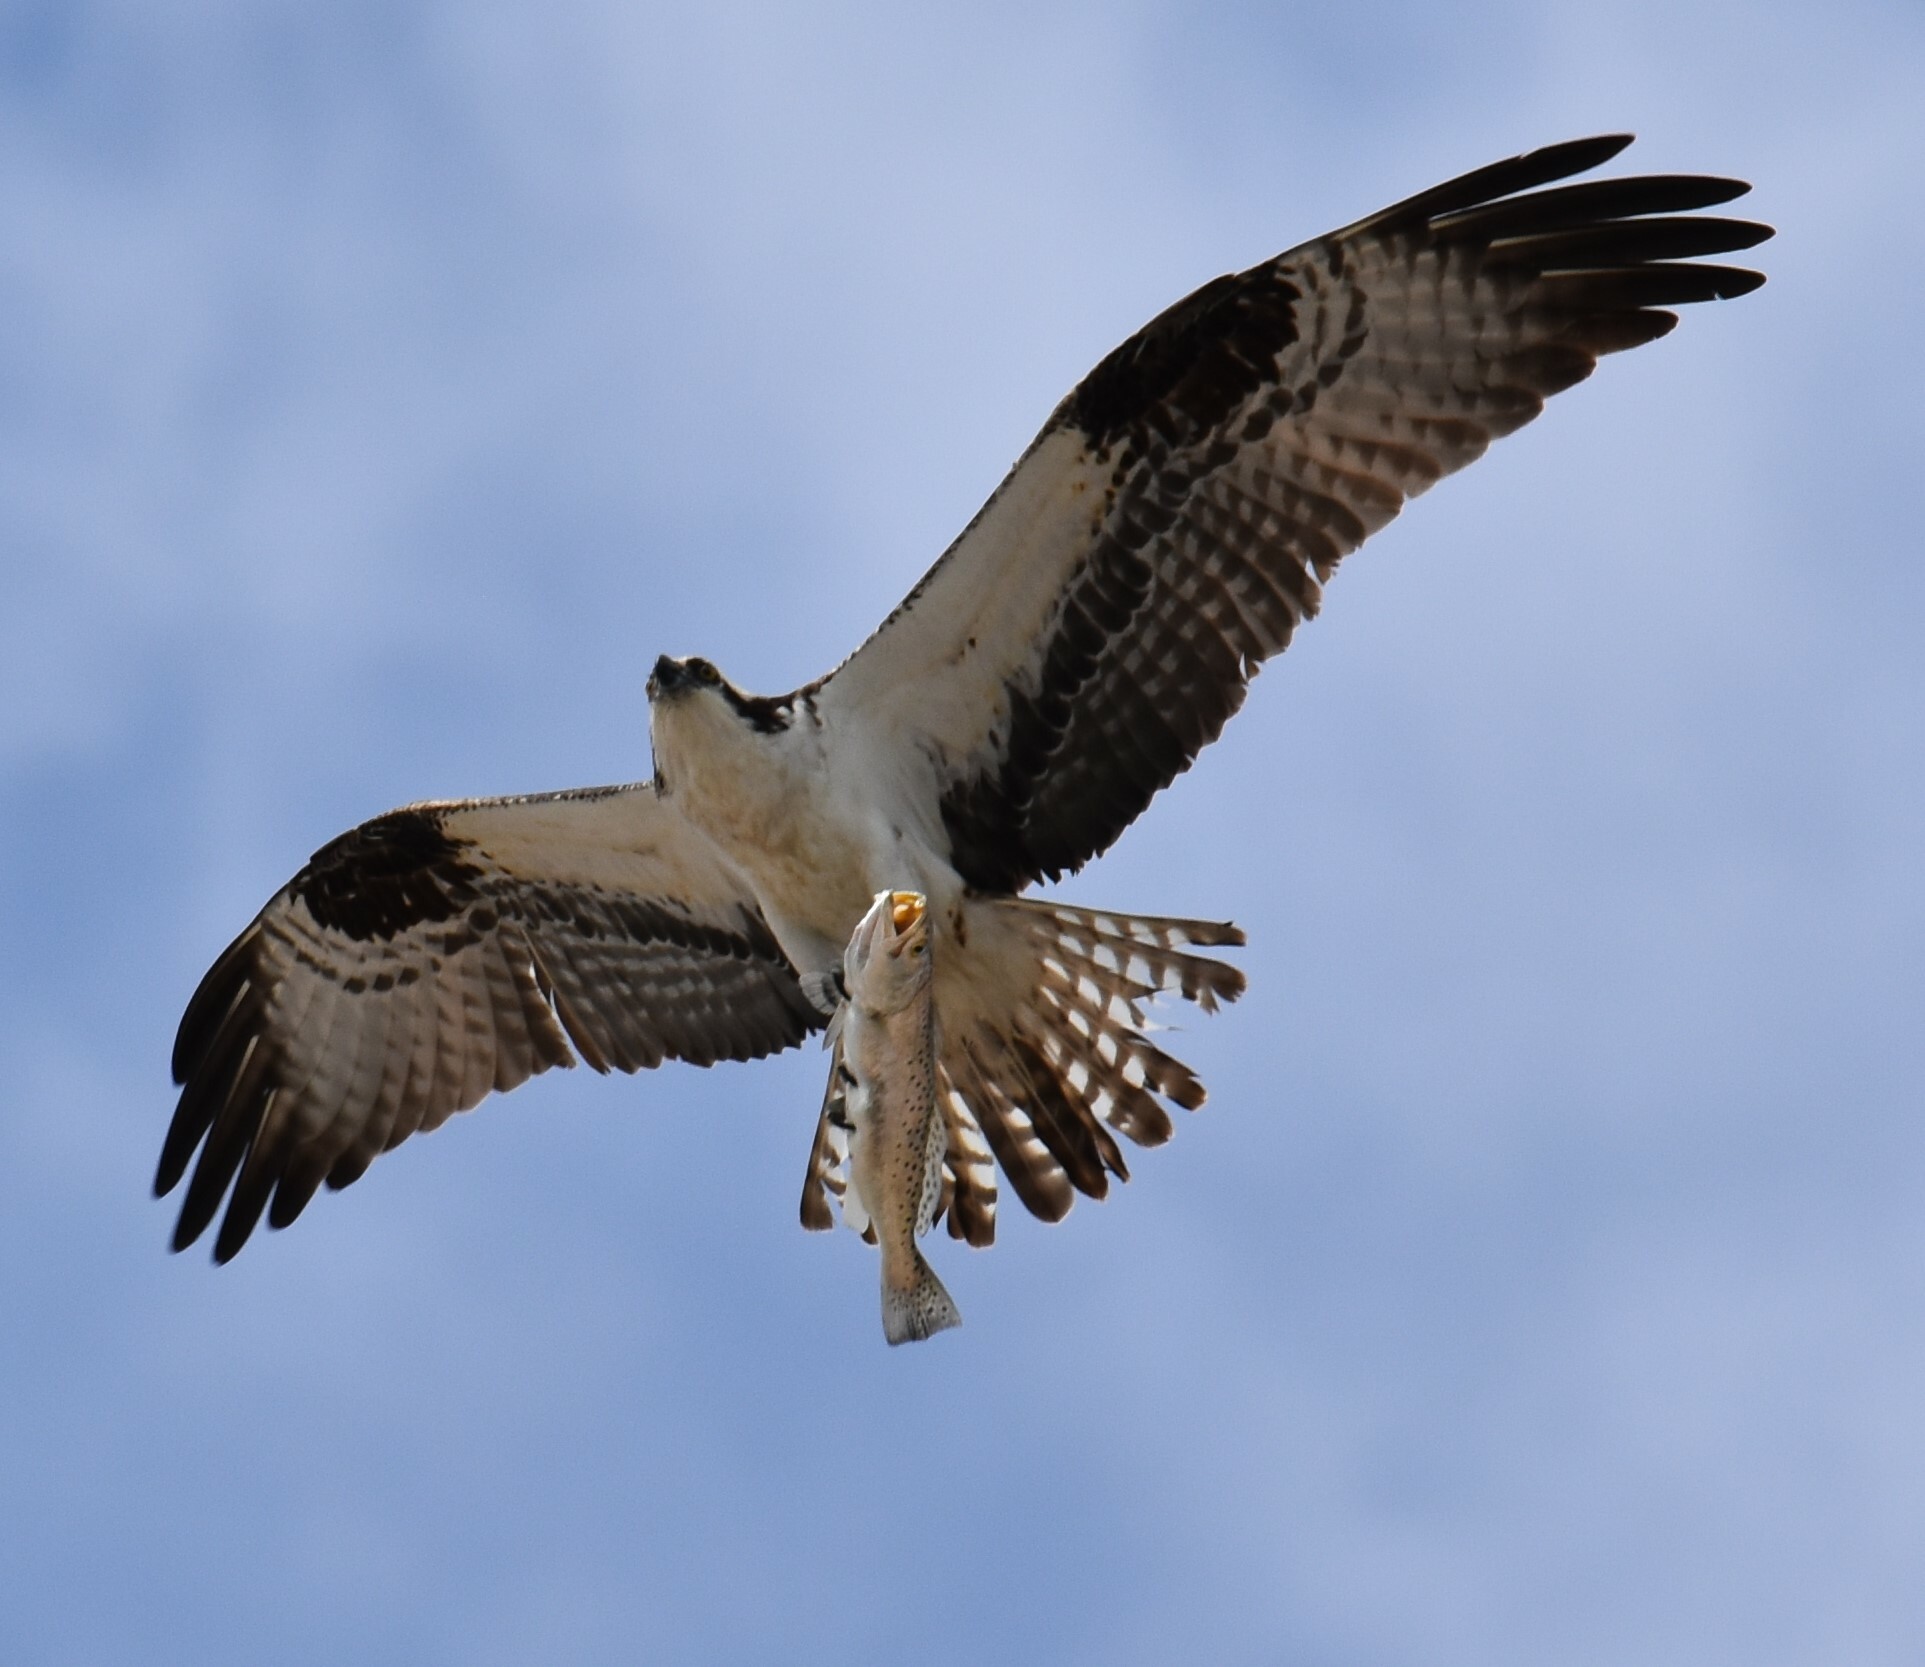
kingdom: Animalia
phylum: Chordata
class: Aves
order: Accipitriformes
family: Pandionidae
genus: Pandion
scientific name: Pandion haliaetus
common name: Osprey
